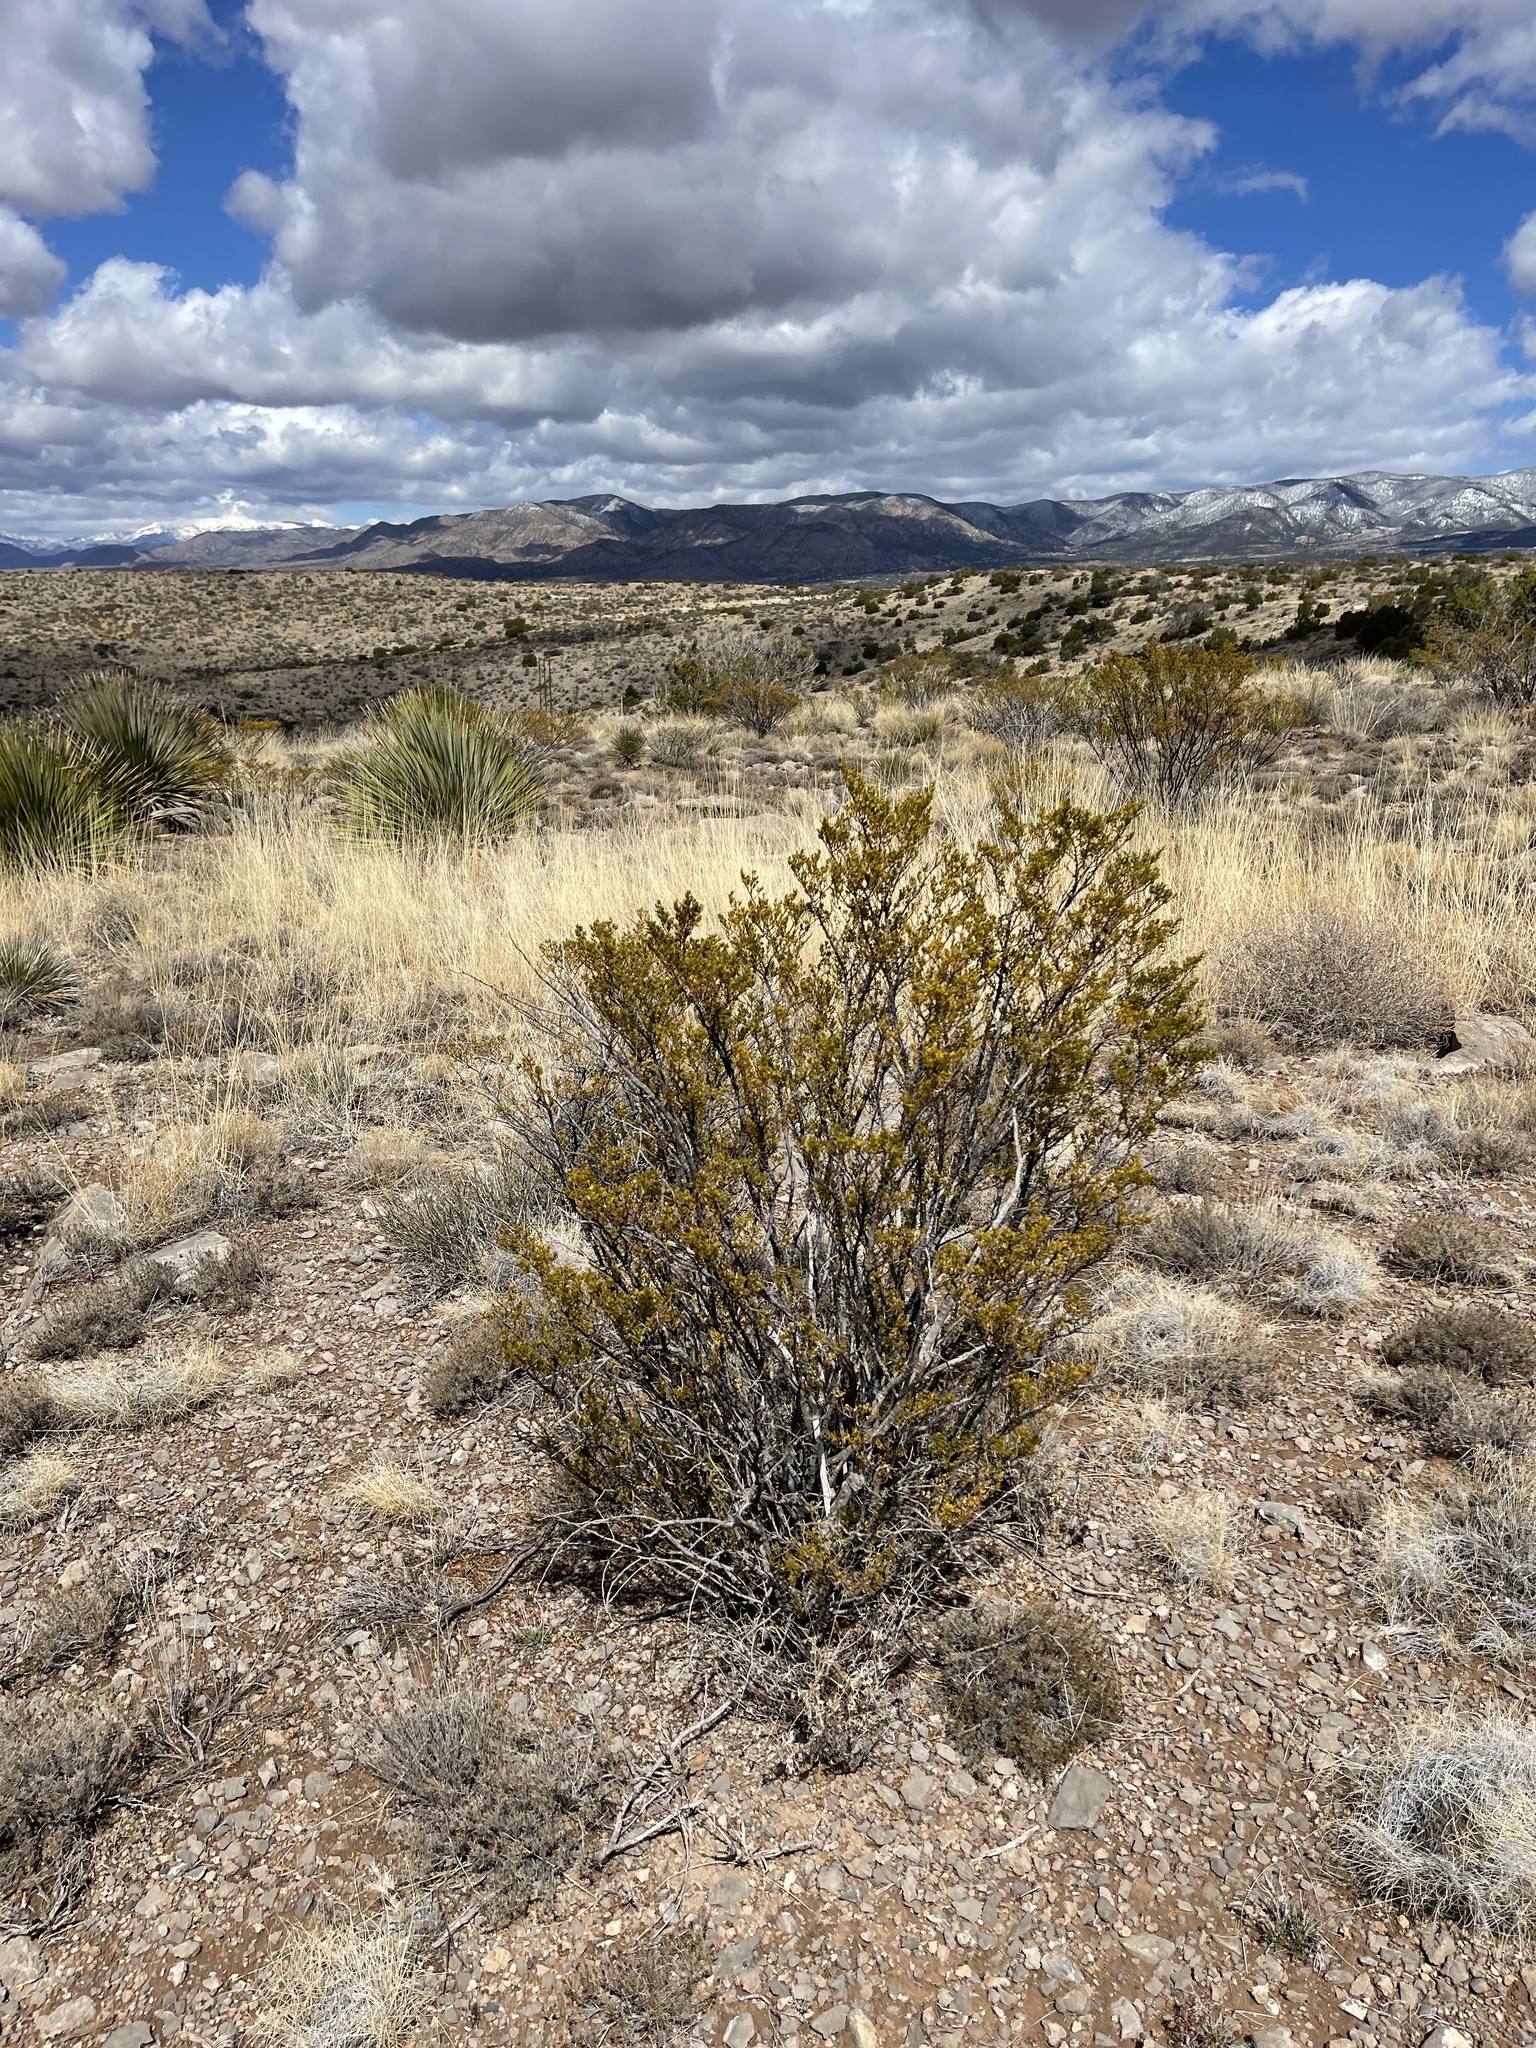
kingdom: Plantae
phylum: Tracheophyta
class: Magnoliopsida
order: Zygophyllales
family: Zygophyllaceae
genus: Larrea
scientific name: Larrea tridentata
